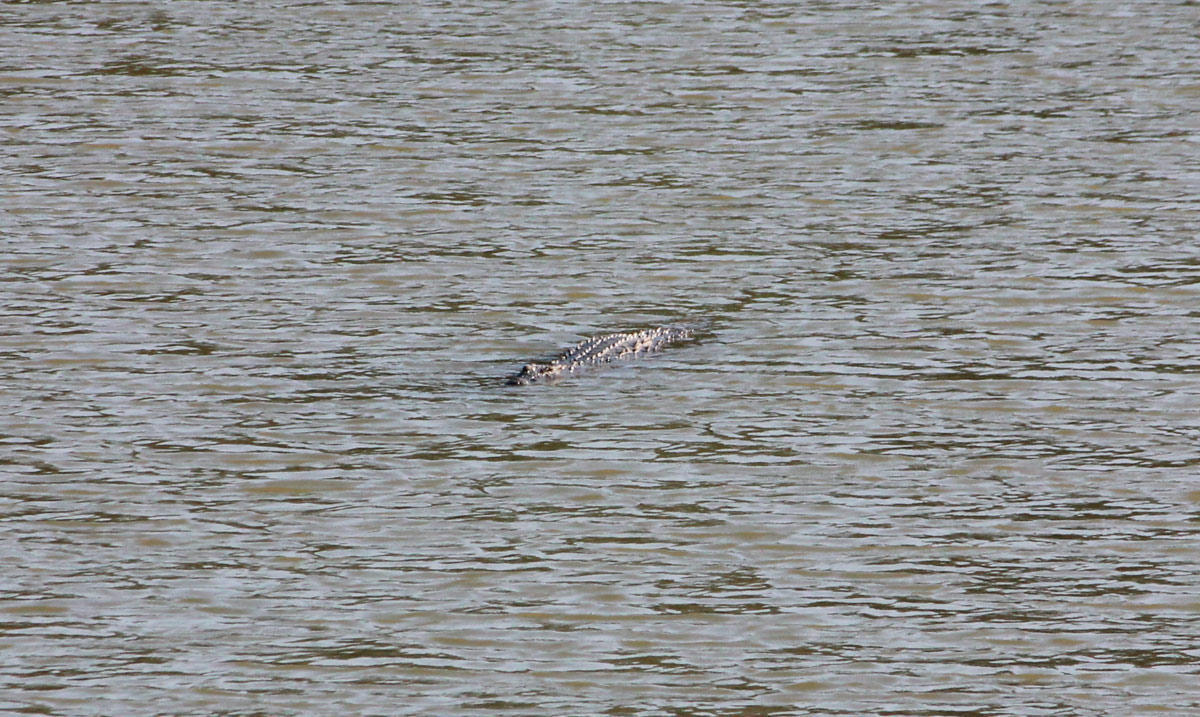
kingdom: Animalia
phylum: Chordata
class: Crocodylia
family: Crocodylidae
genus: Crocodylus
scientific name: Crocodylus niloticus
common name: Nile crocodile
